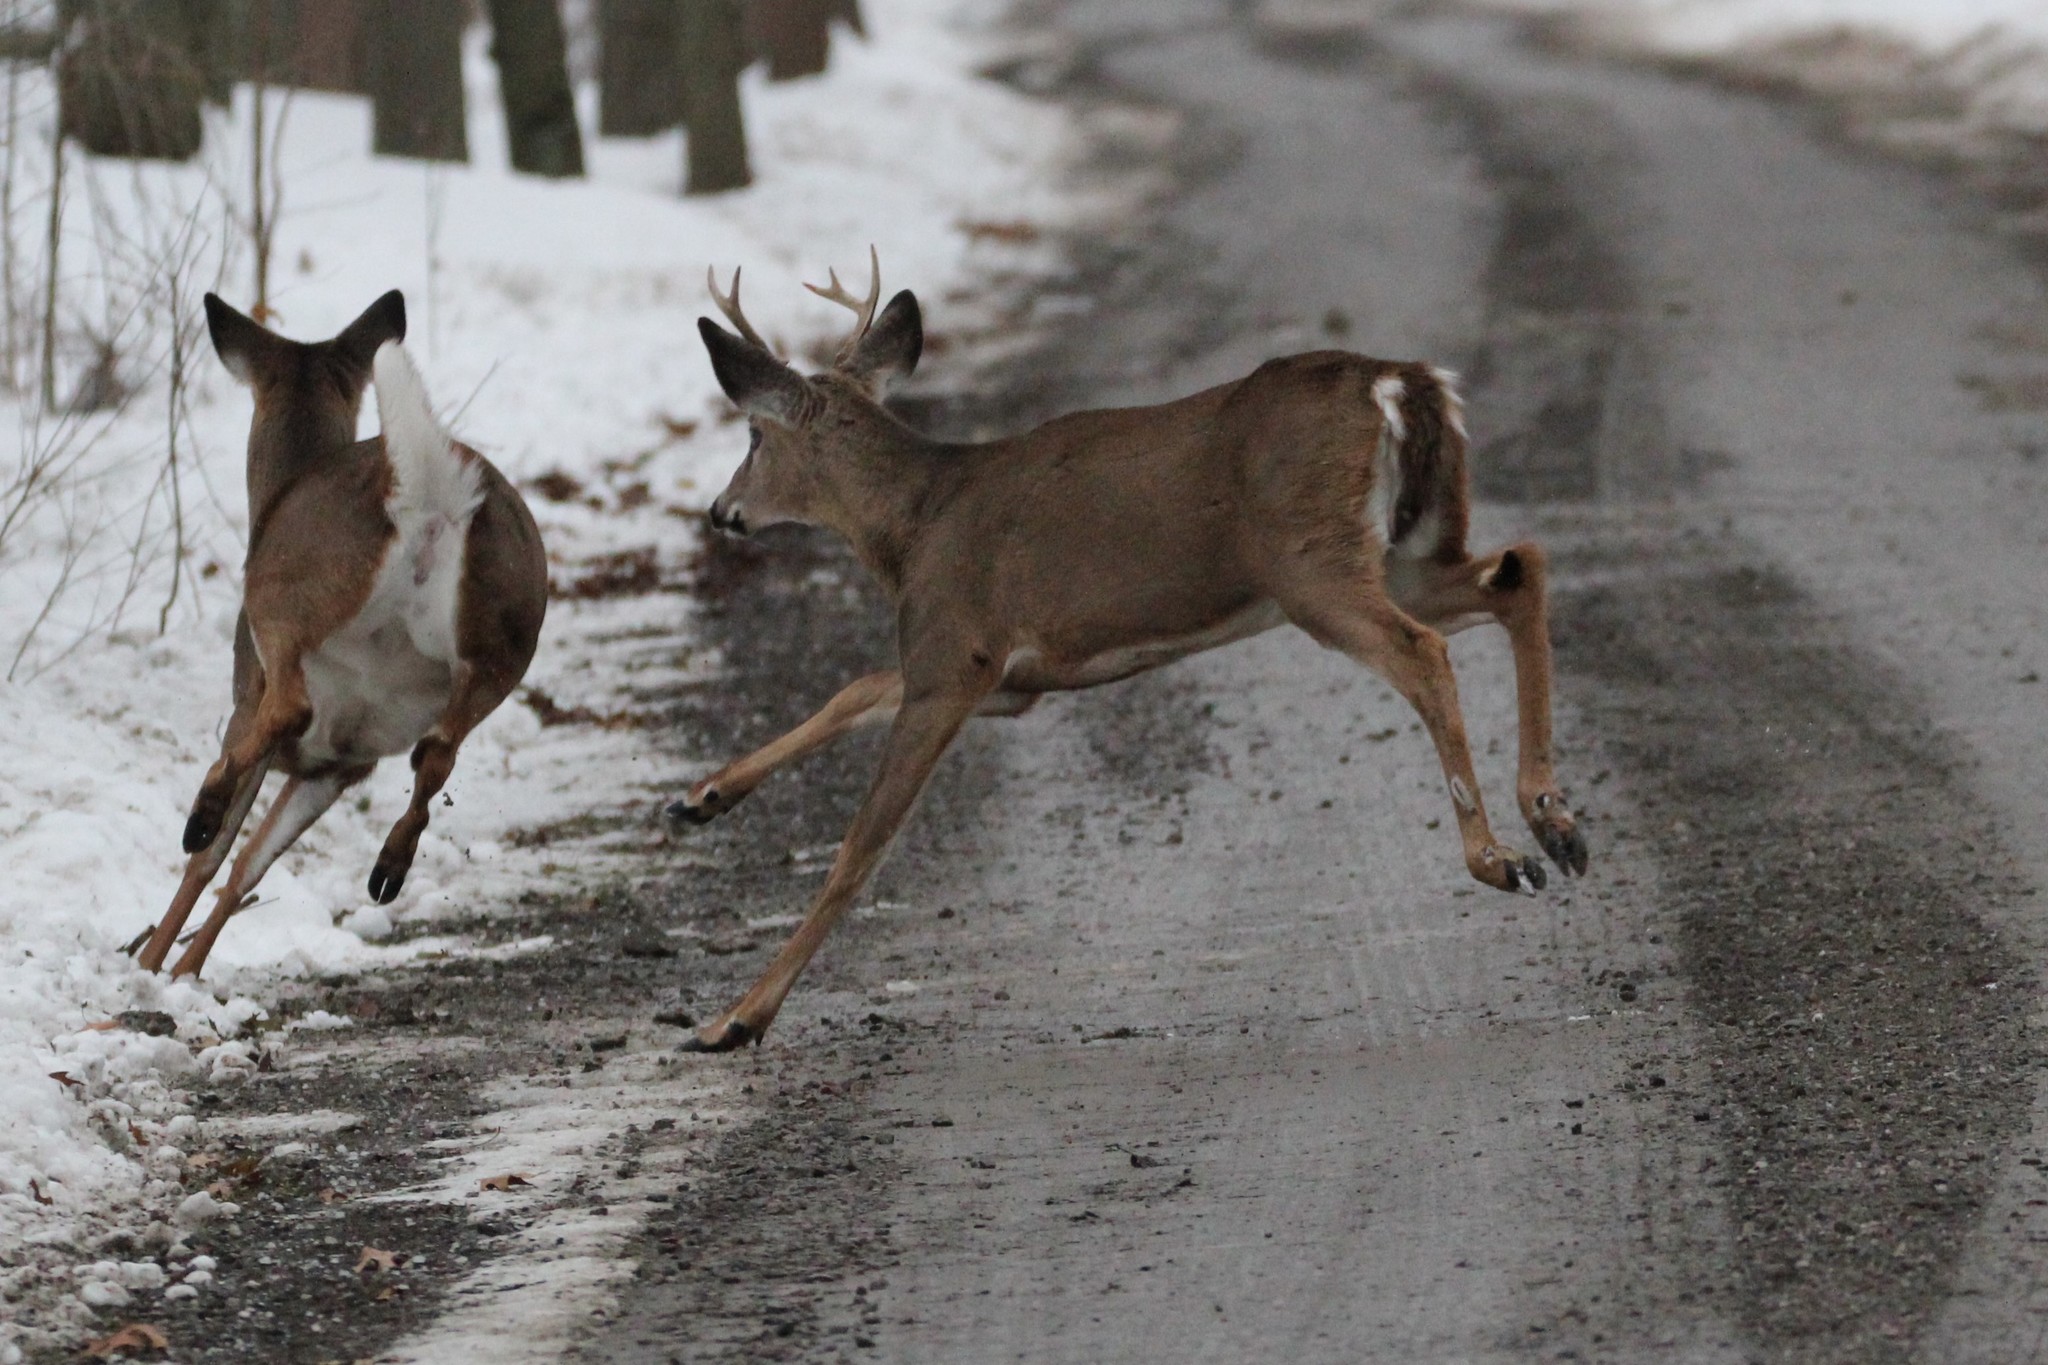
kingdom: Animalia
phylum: Chordata
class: Mammalia
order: Artiodactyla
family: Cervidae
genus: Odocoileus
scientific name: Odocoileus virginianus
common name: White-tailed deer
